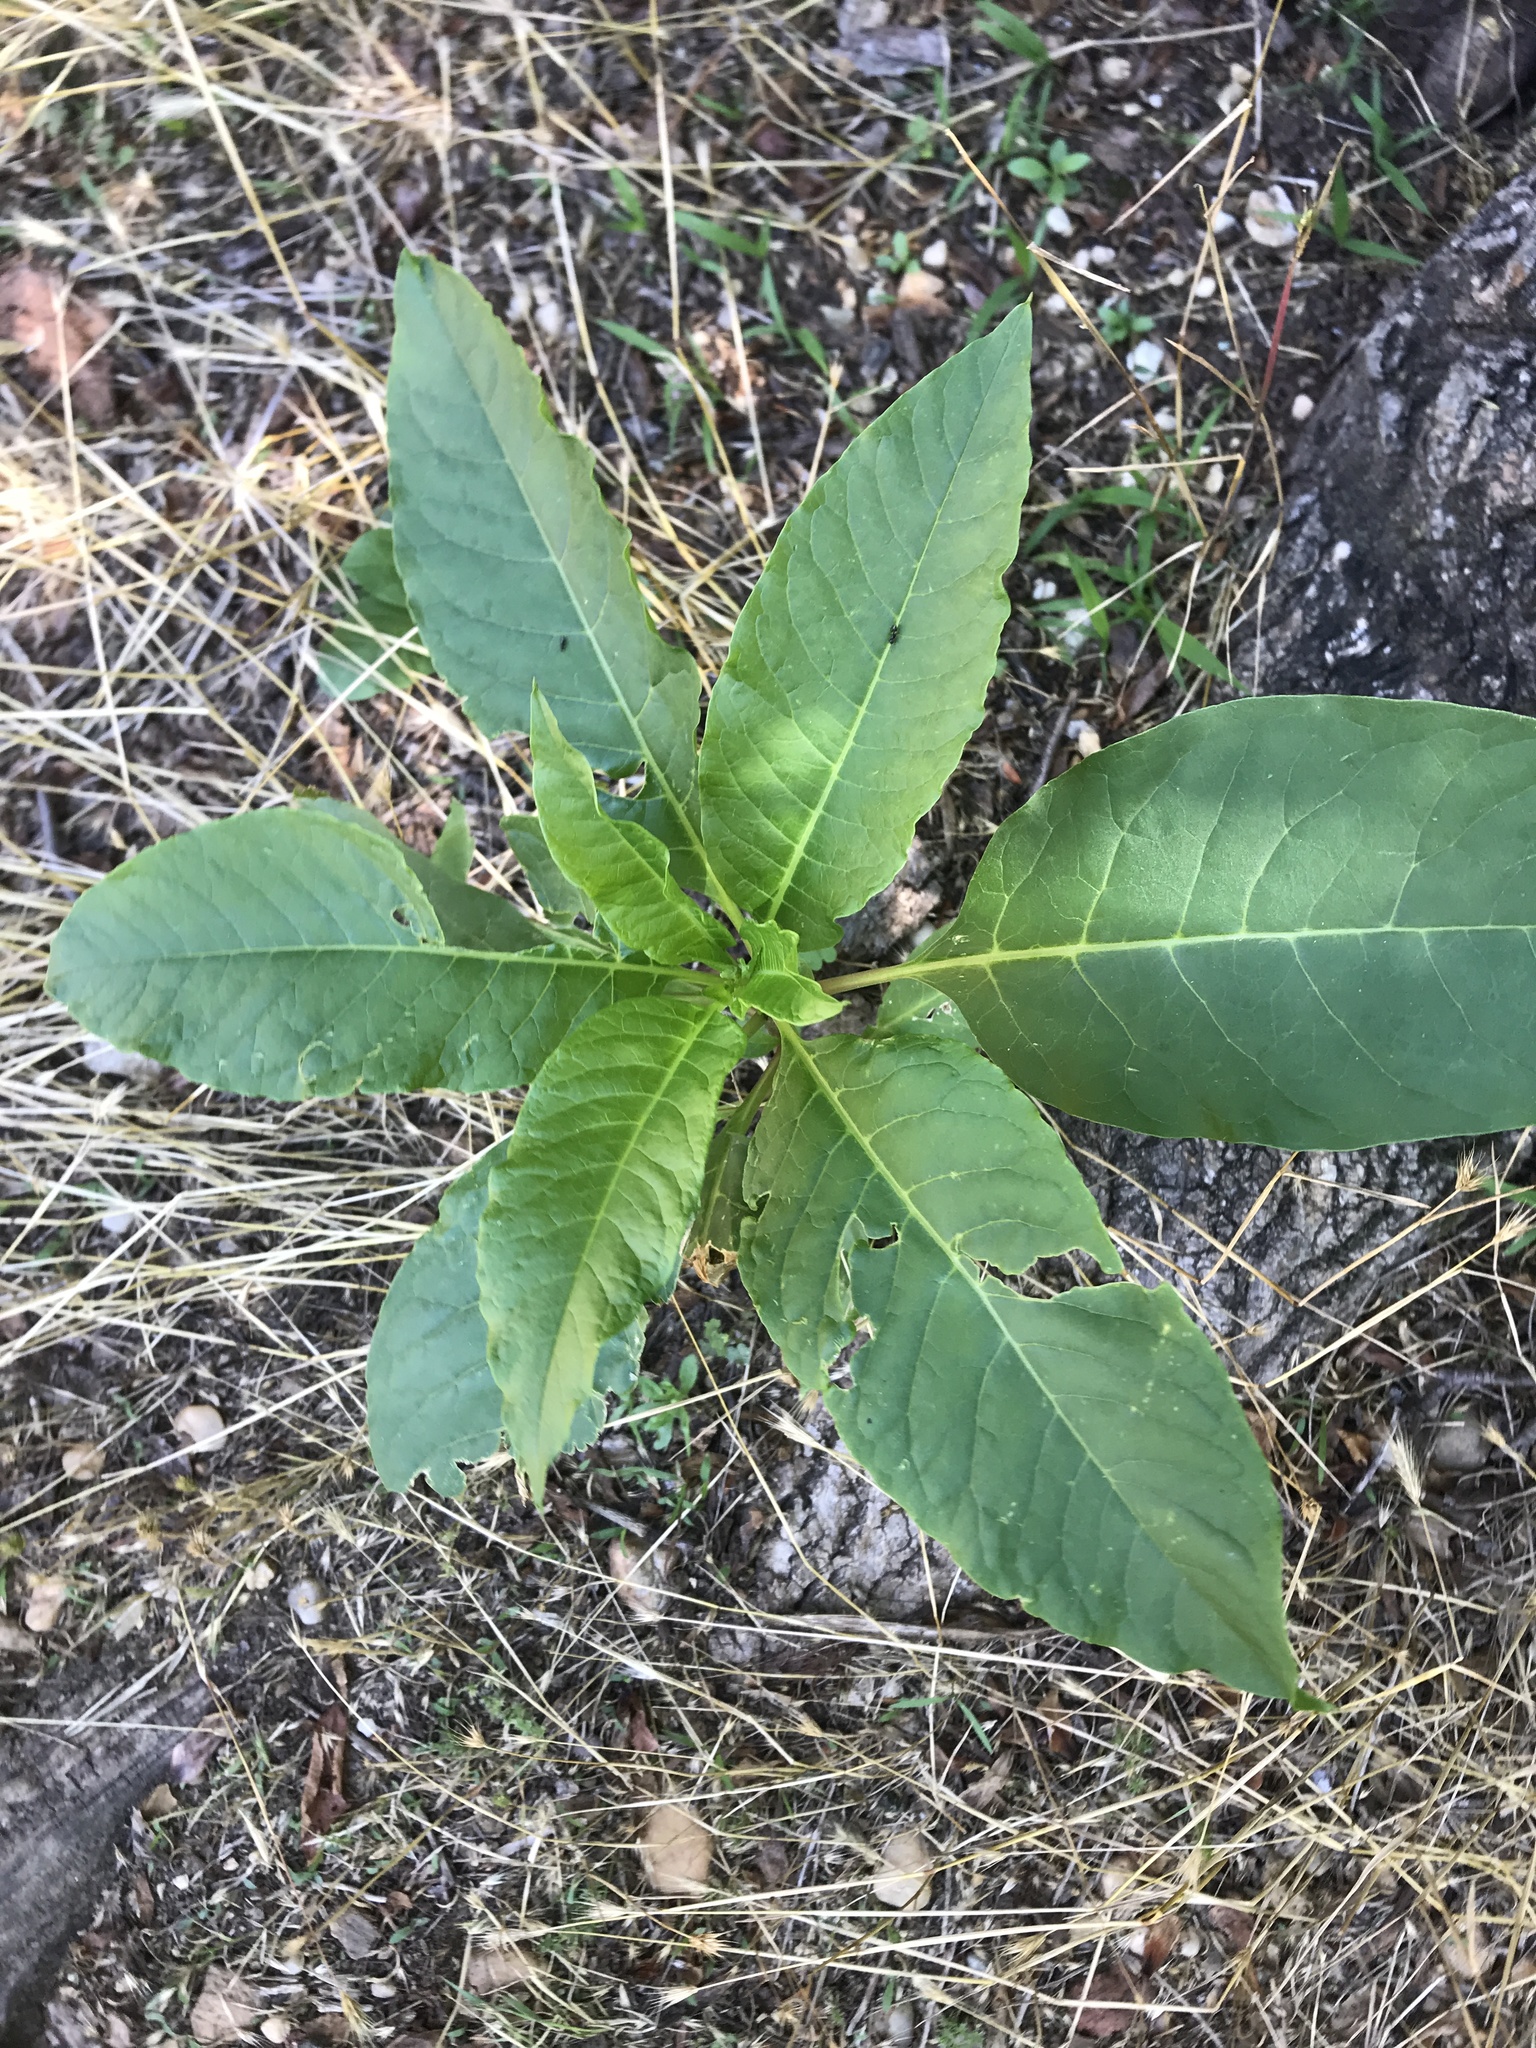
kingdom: Plantae
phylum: Tracheophyta
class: Magnoliopsida
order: Caryophyllales
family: Phytolaccaceae
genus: Phytolacca
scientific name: Phytolacca americana
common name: American pokeweed
